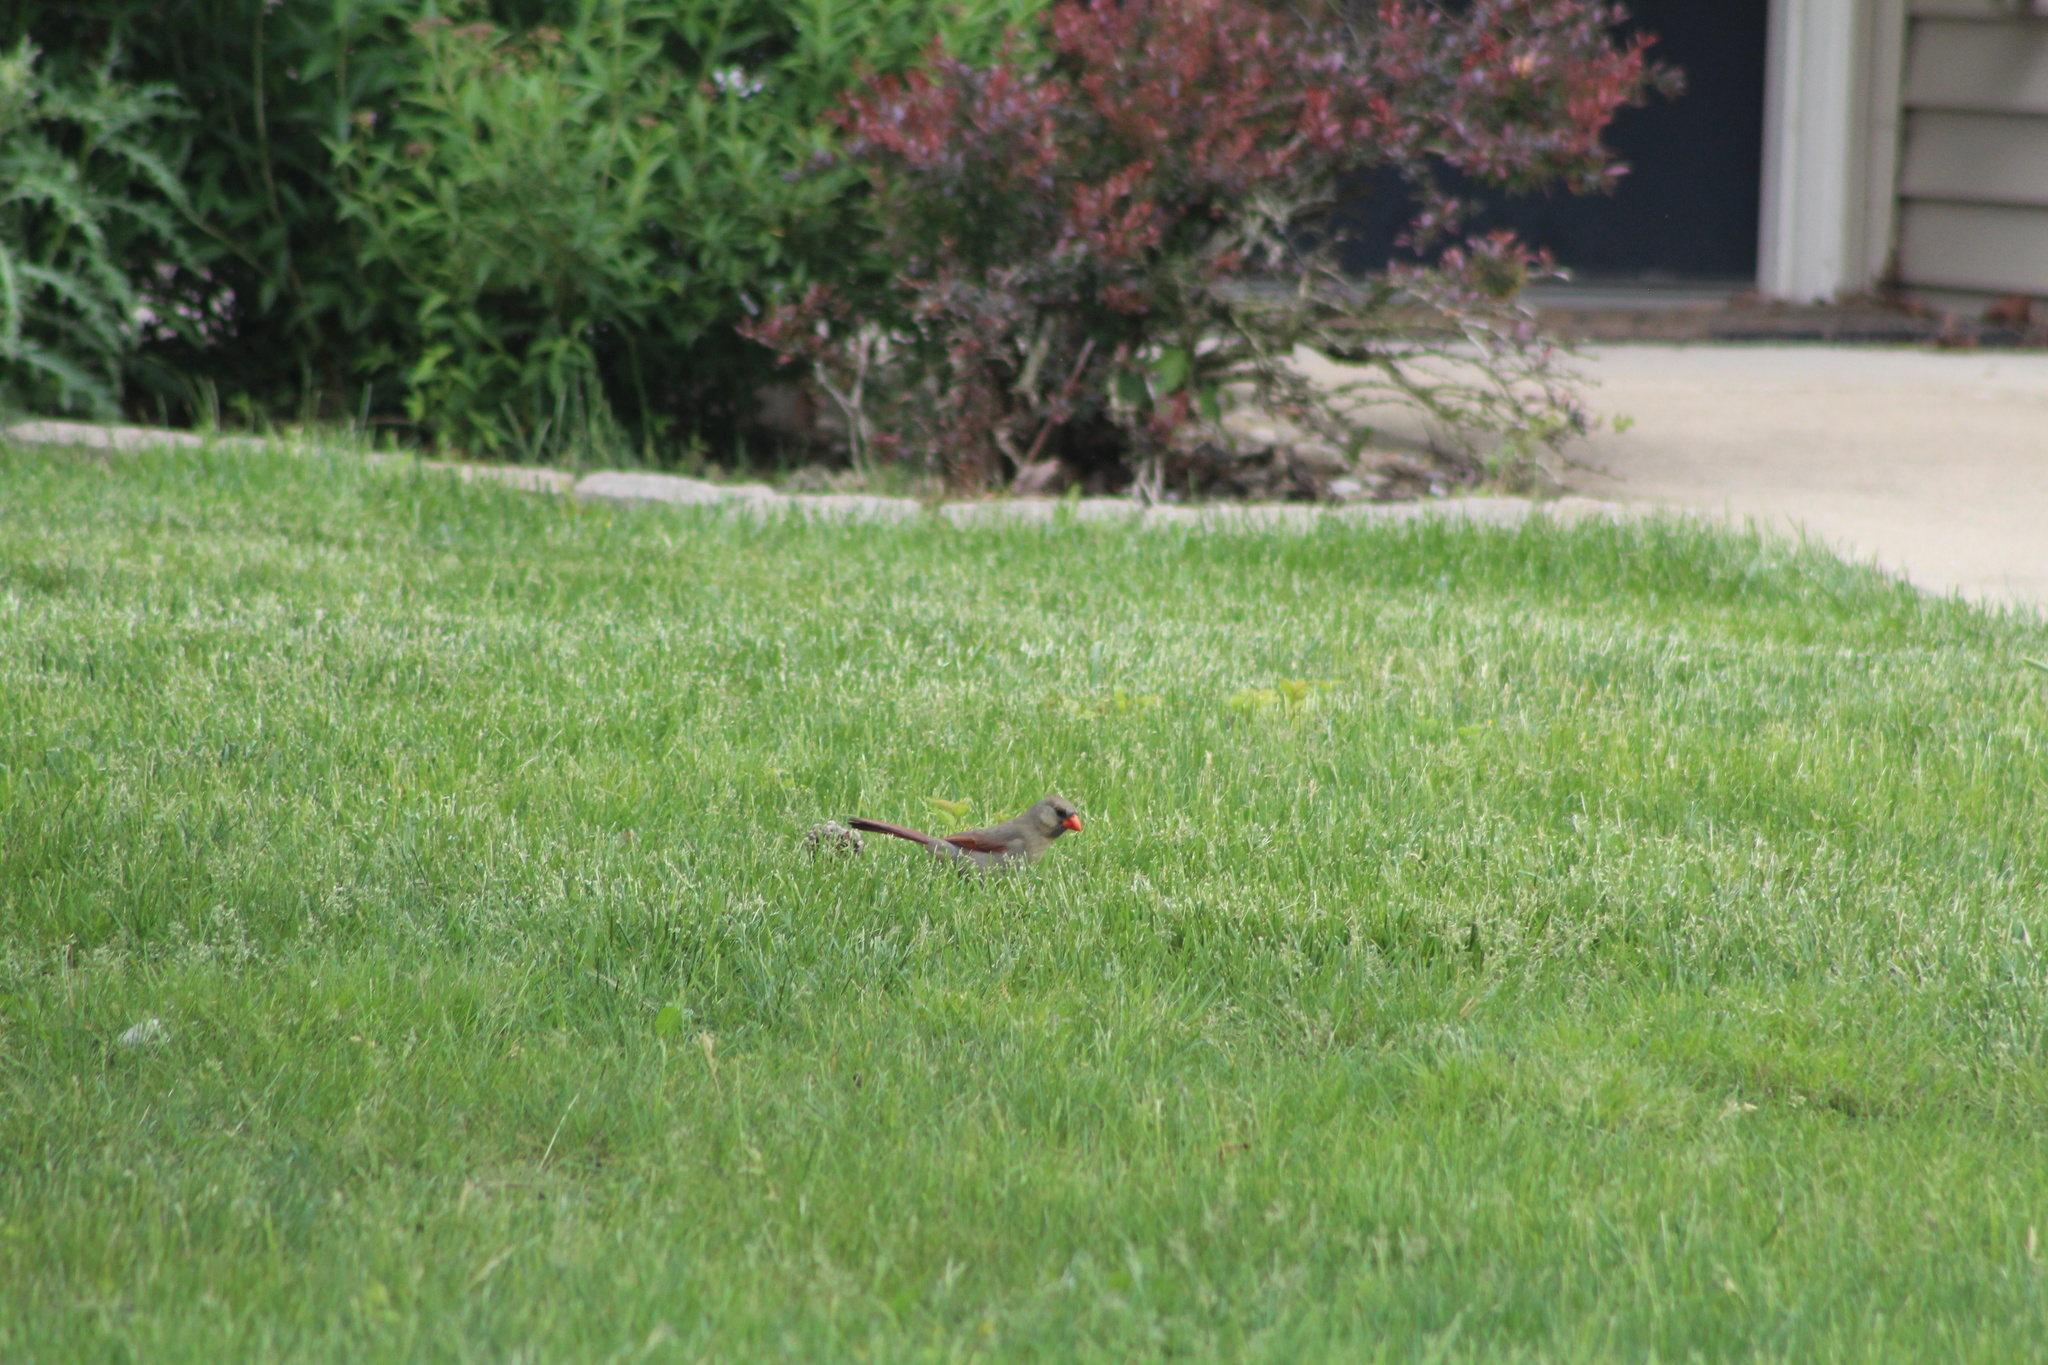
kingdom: Animalia
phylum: Chordata
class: Aves
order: Passeriformes
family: Cardinalidae
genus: Cardinalis
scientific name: Cardinalis cardinalis
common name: Northern cardinal
